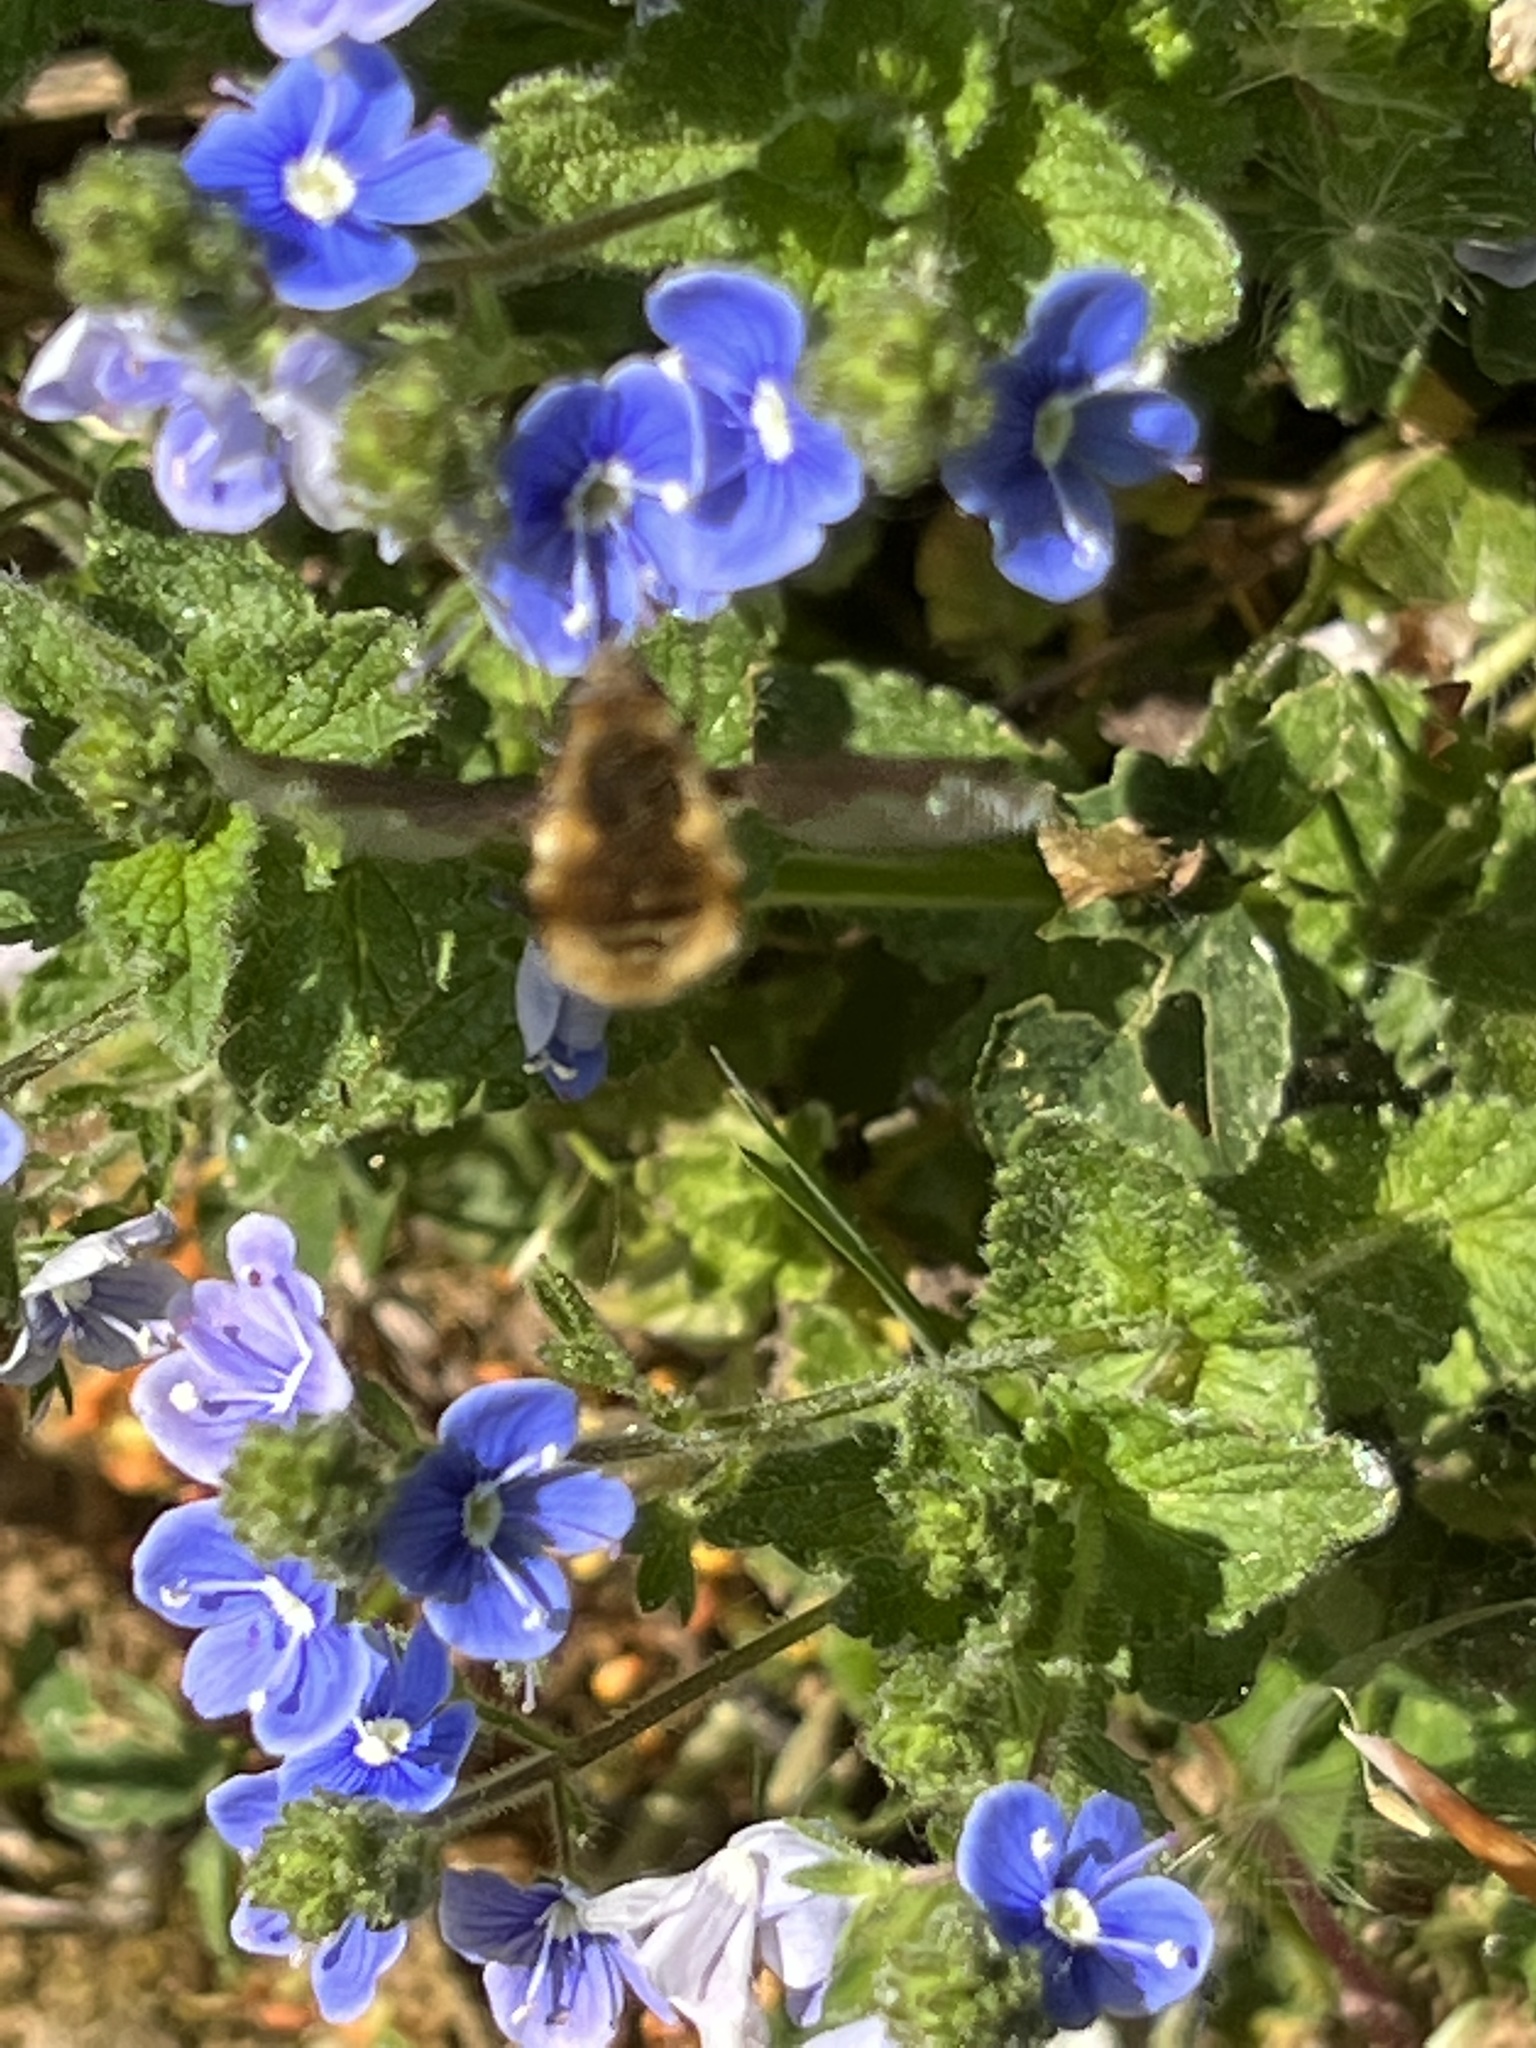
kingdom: Animalia
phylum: Arthropoda
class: Insecta
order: Diptera
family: Bombyliidae
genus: Bombylius
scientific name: Bombylius major
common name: Bee fly
